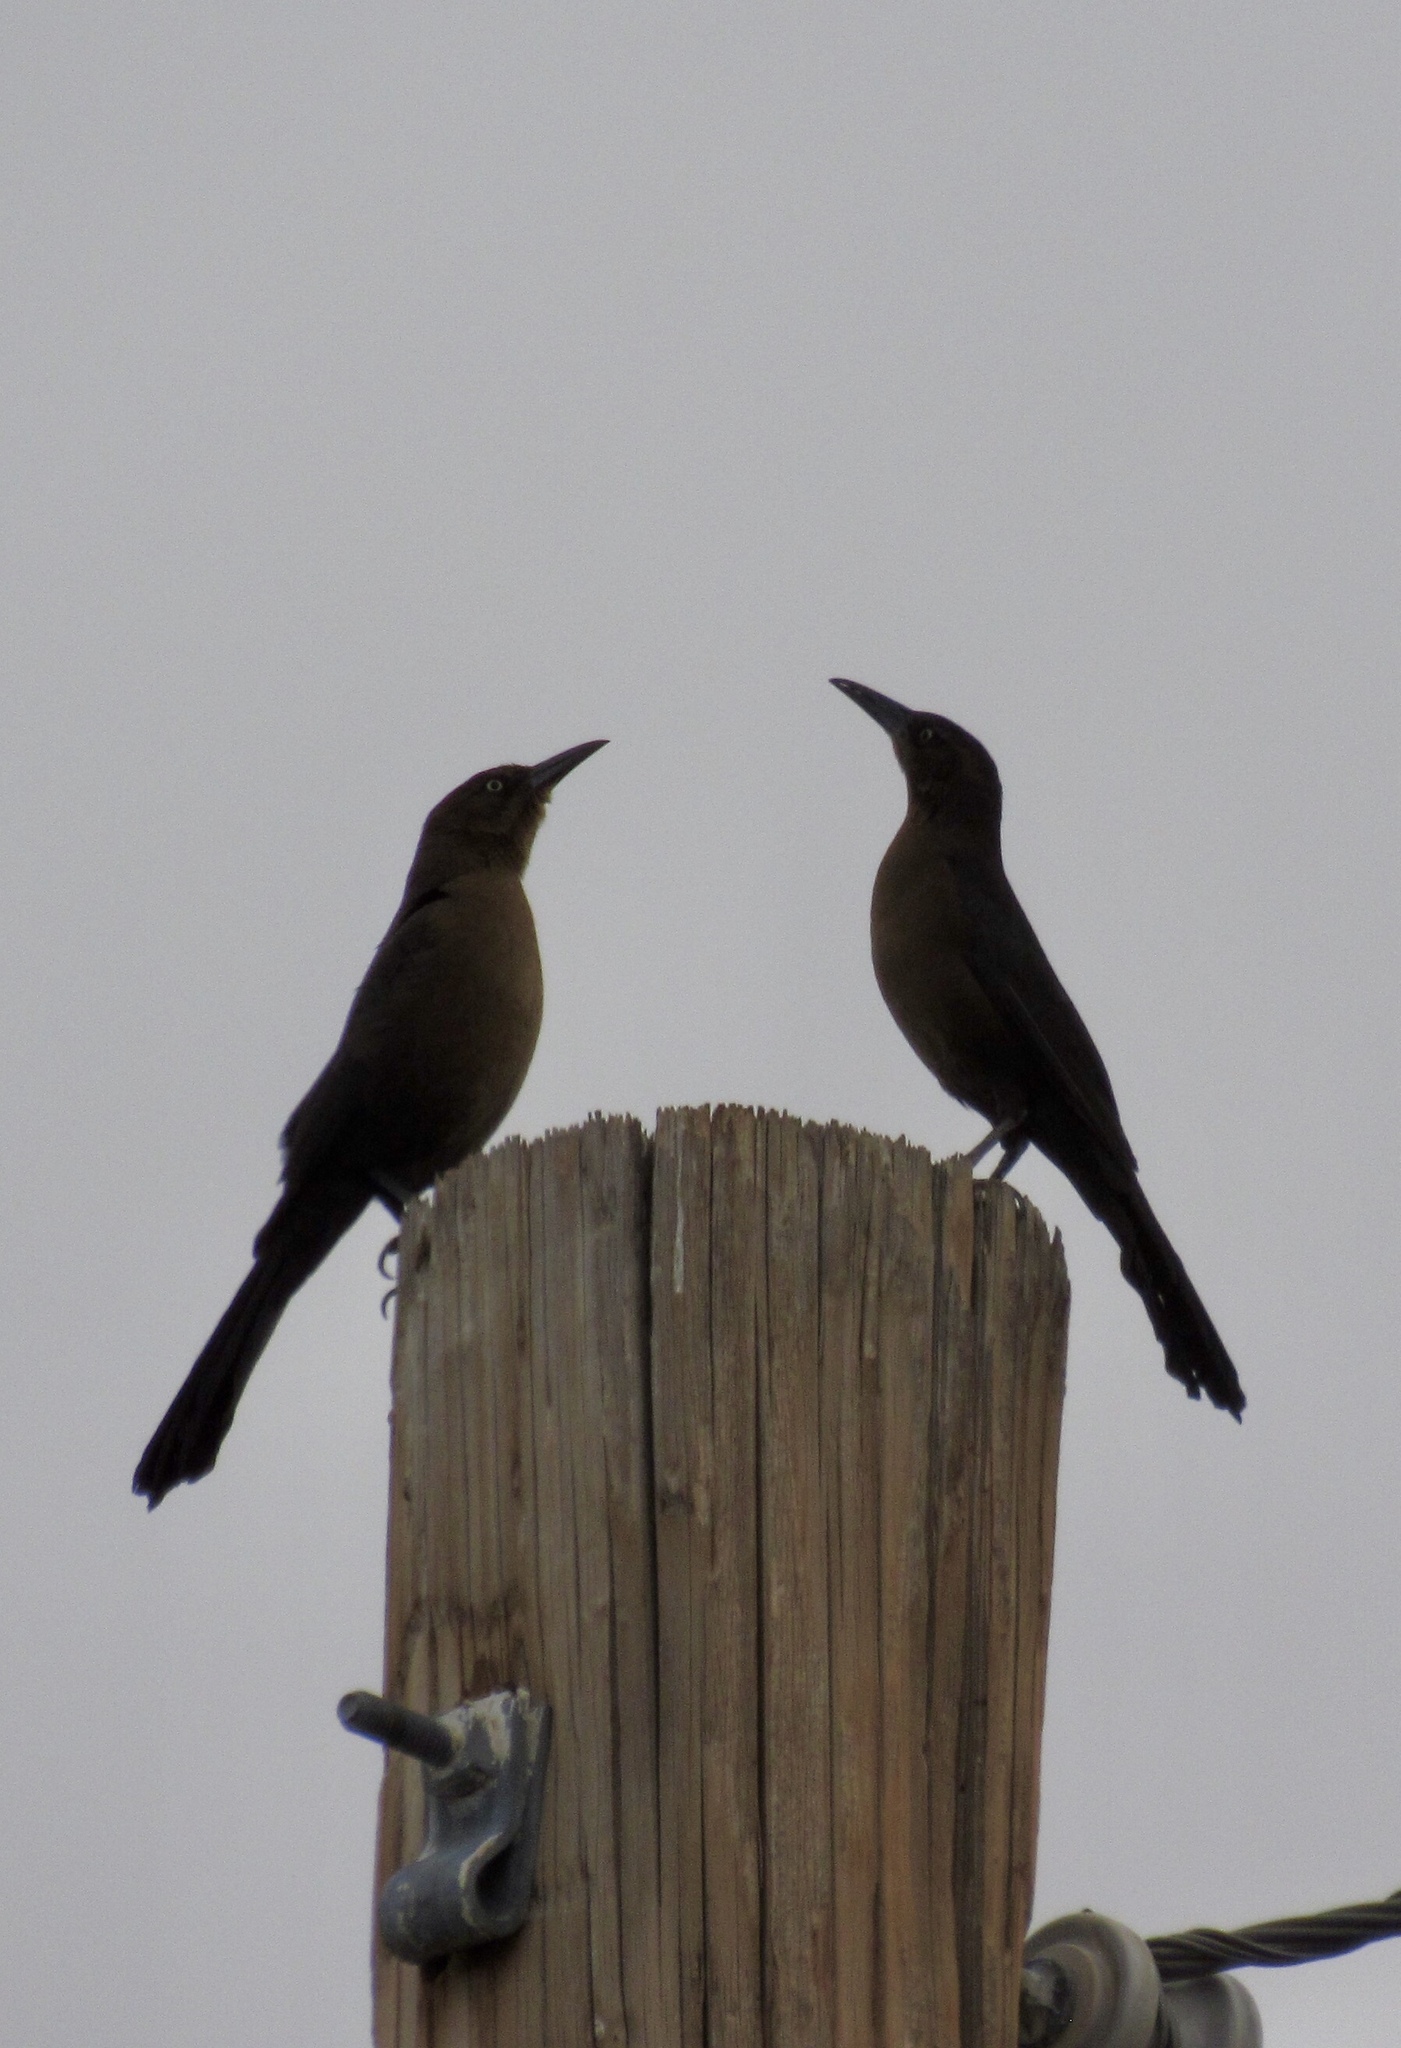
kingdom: Animalia
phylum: Chordata
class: Aves
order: Passeriformes
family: Icteridae
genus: Quiscalus
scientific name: Quiscalus mexicanus
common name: Great-tailed grackle
